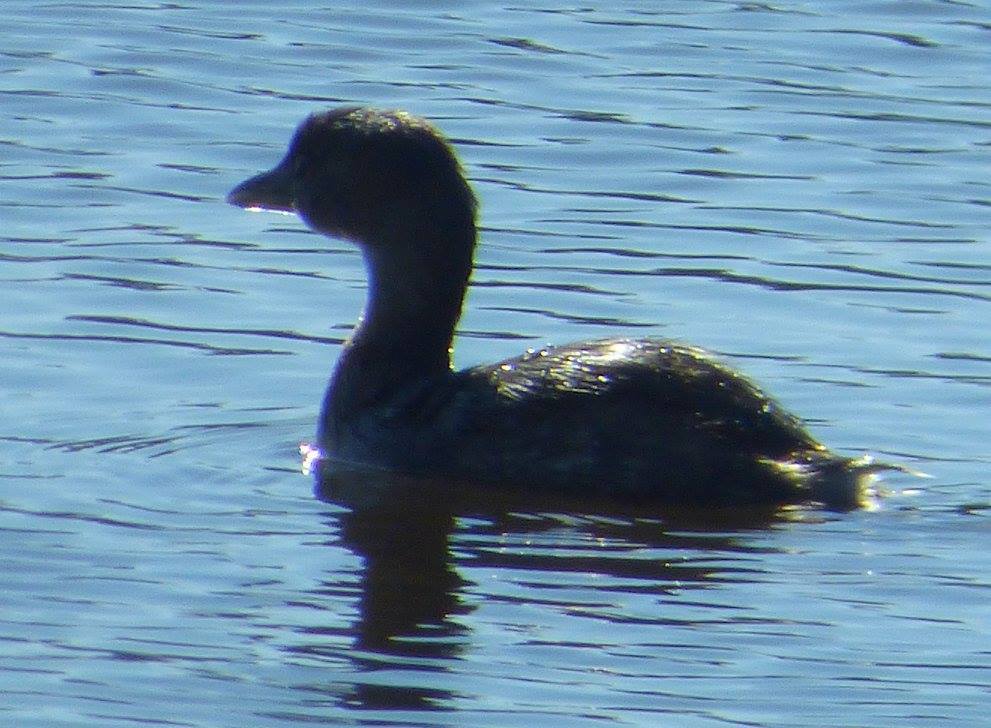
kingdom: Animalia
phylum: Chordata
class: Aves
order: Podicipediformes
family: Podicipedidae
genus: Podilymbus
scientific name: Podilymbus podiceps
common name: Pied-billed grebe
